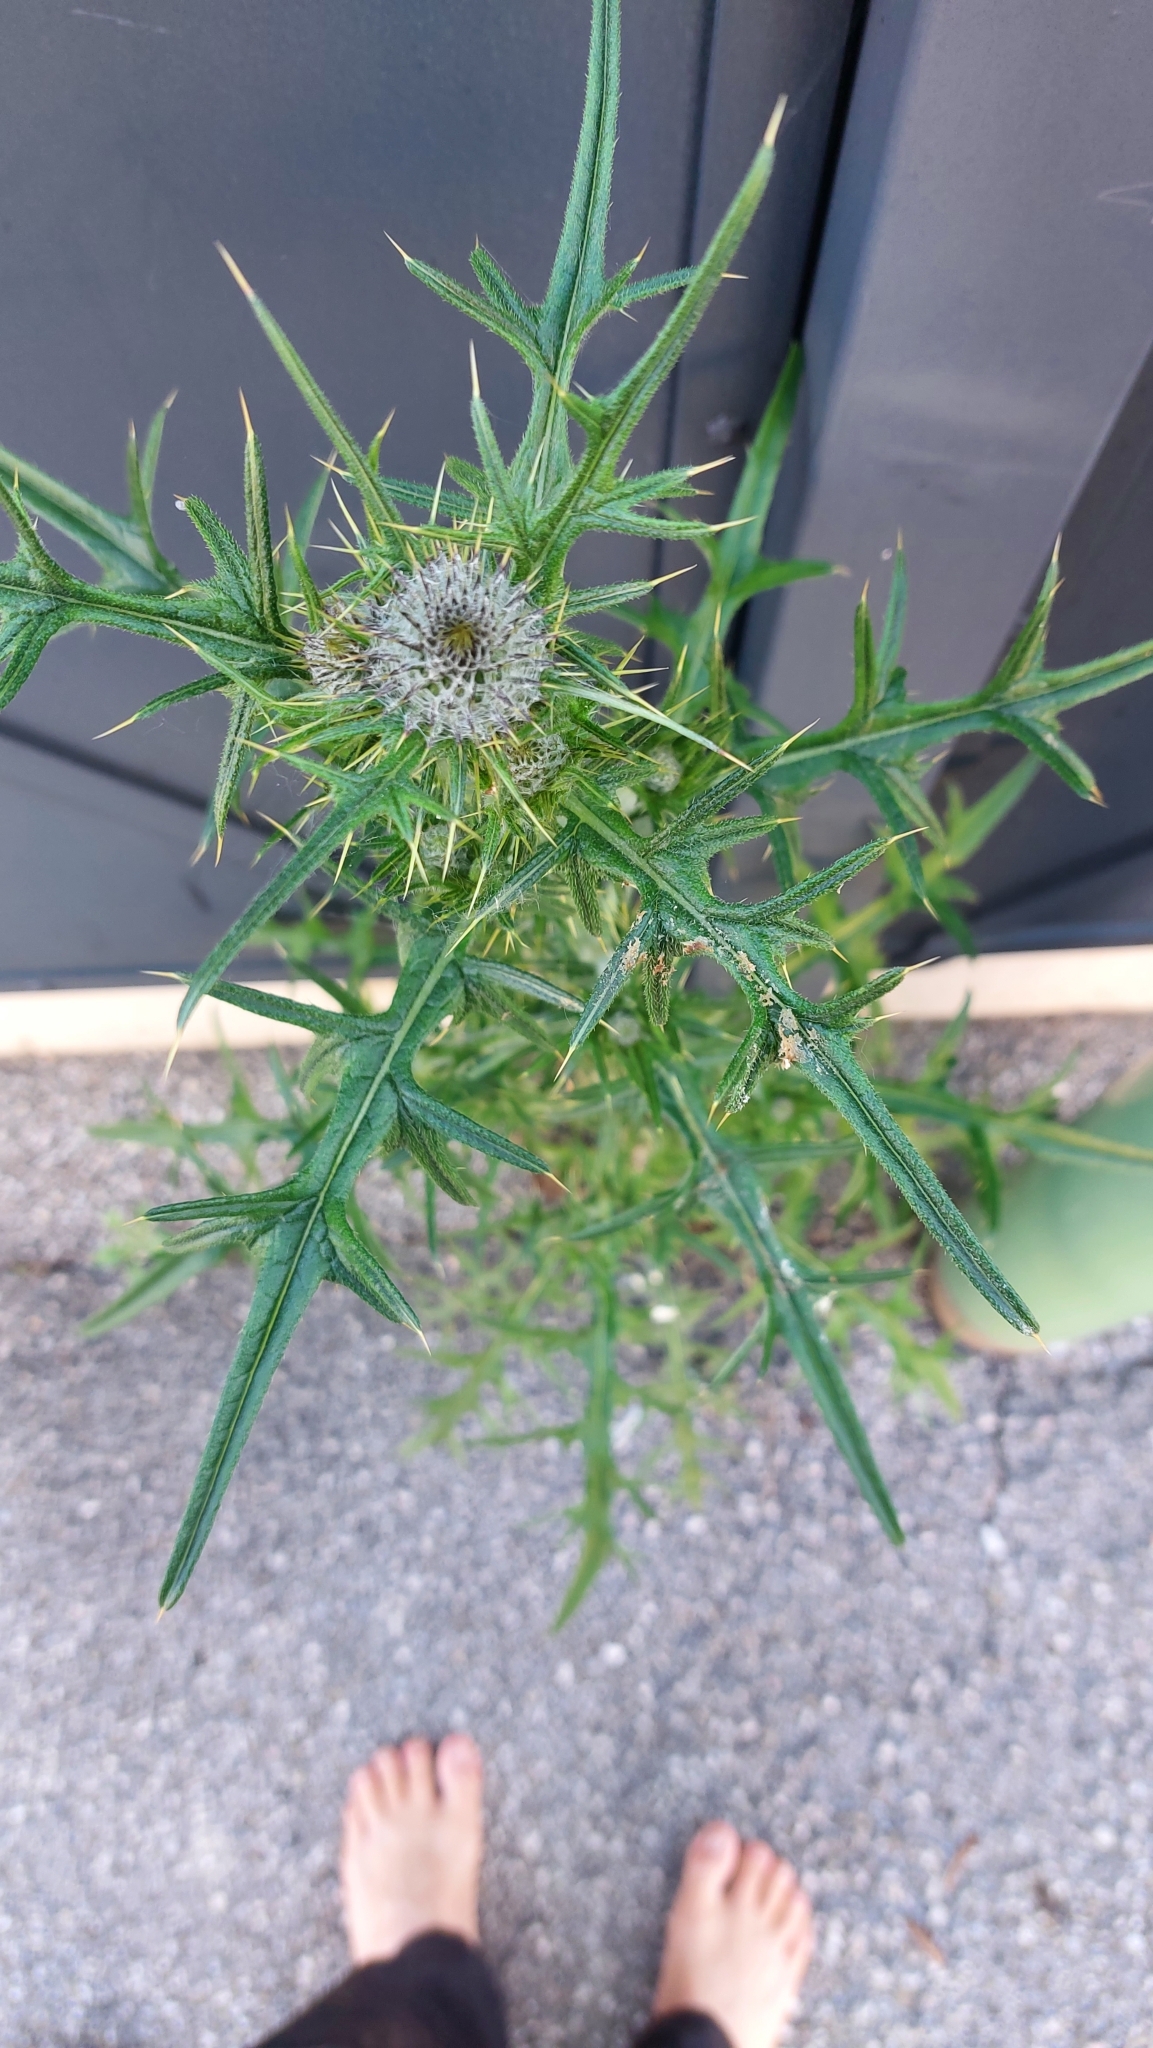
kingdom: Plantae
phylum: Tracheophyta
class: Magnoliopsida
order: Asterales
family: Asteraceae
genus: Cirsium
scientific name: Cirsium vulgare
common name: Bull thistle
